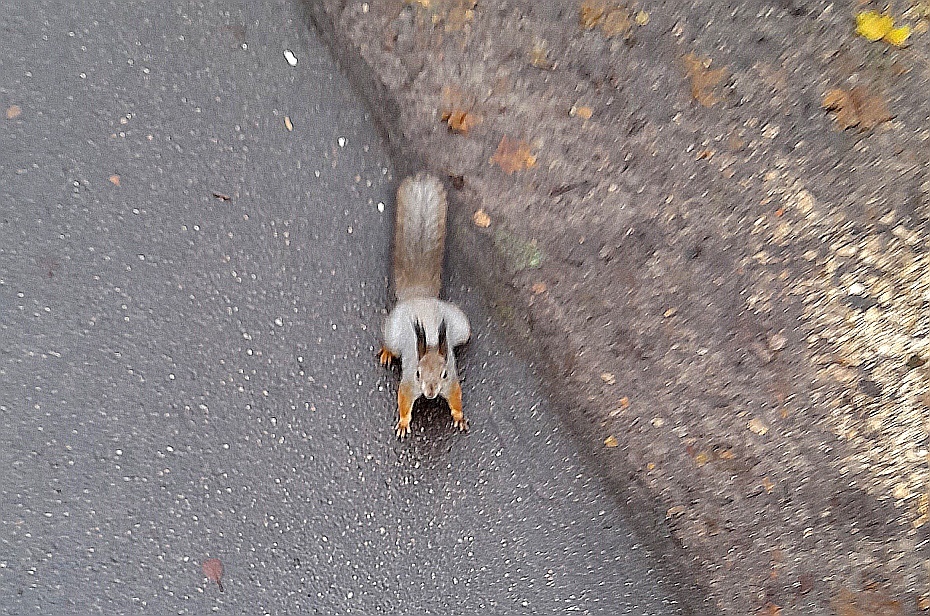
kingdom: Animalia
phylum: Chordata
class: Mammalia
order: Rodentia
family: Sciuridae
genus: Sciurus
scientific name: Sciurus vulgaris
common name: Eurasian red squirrel
